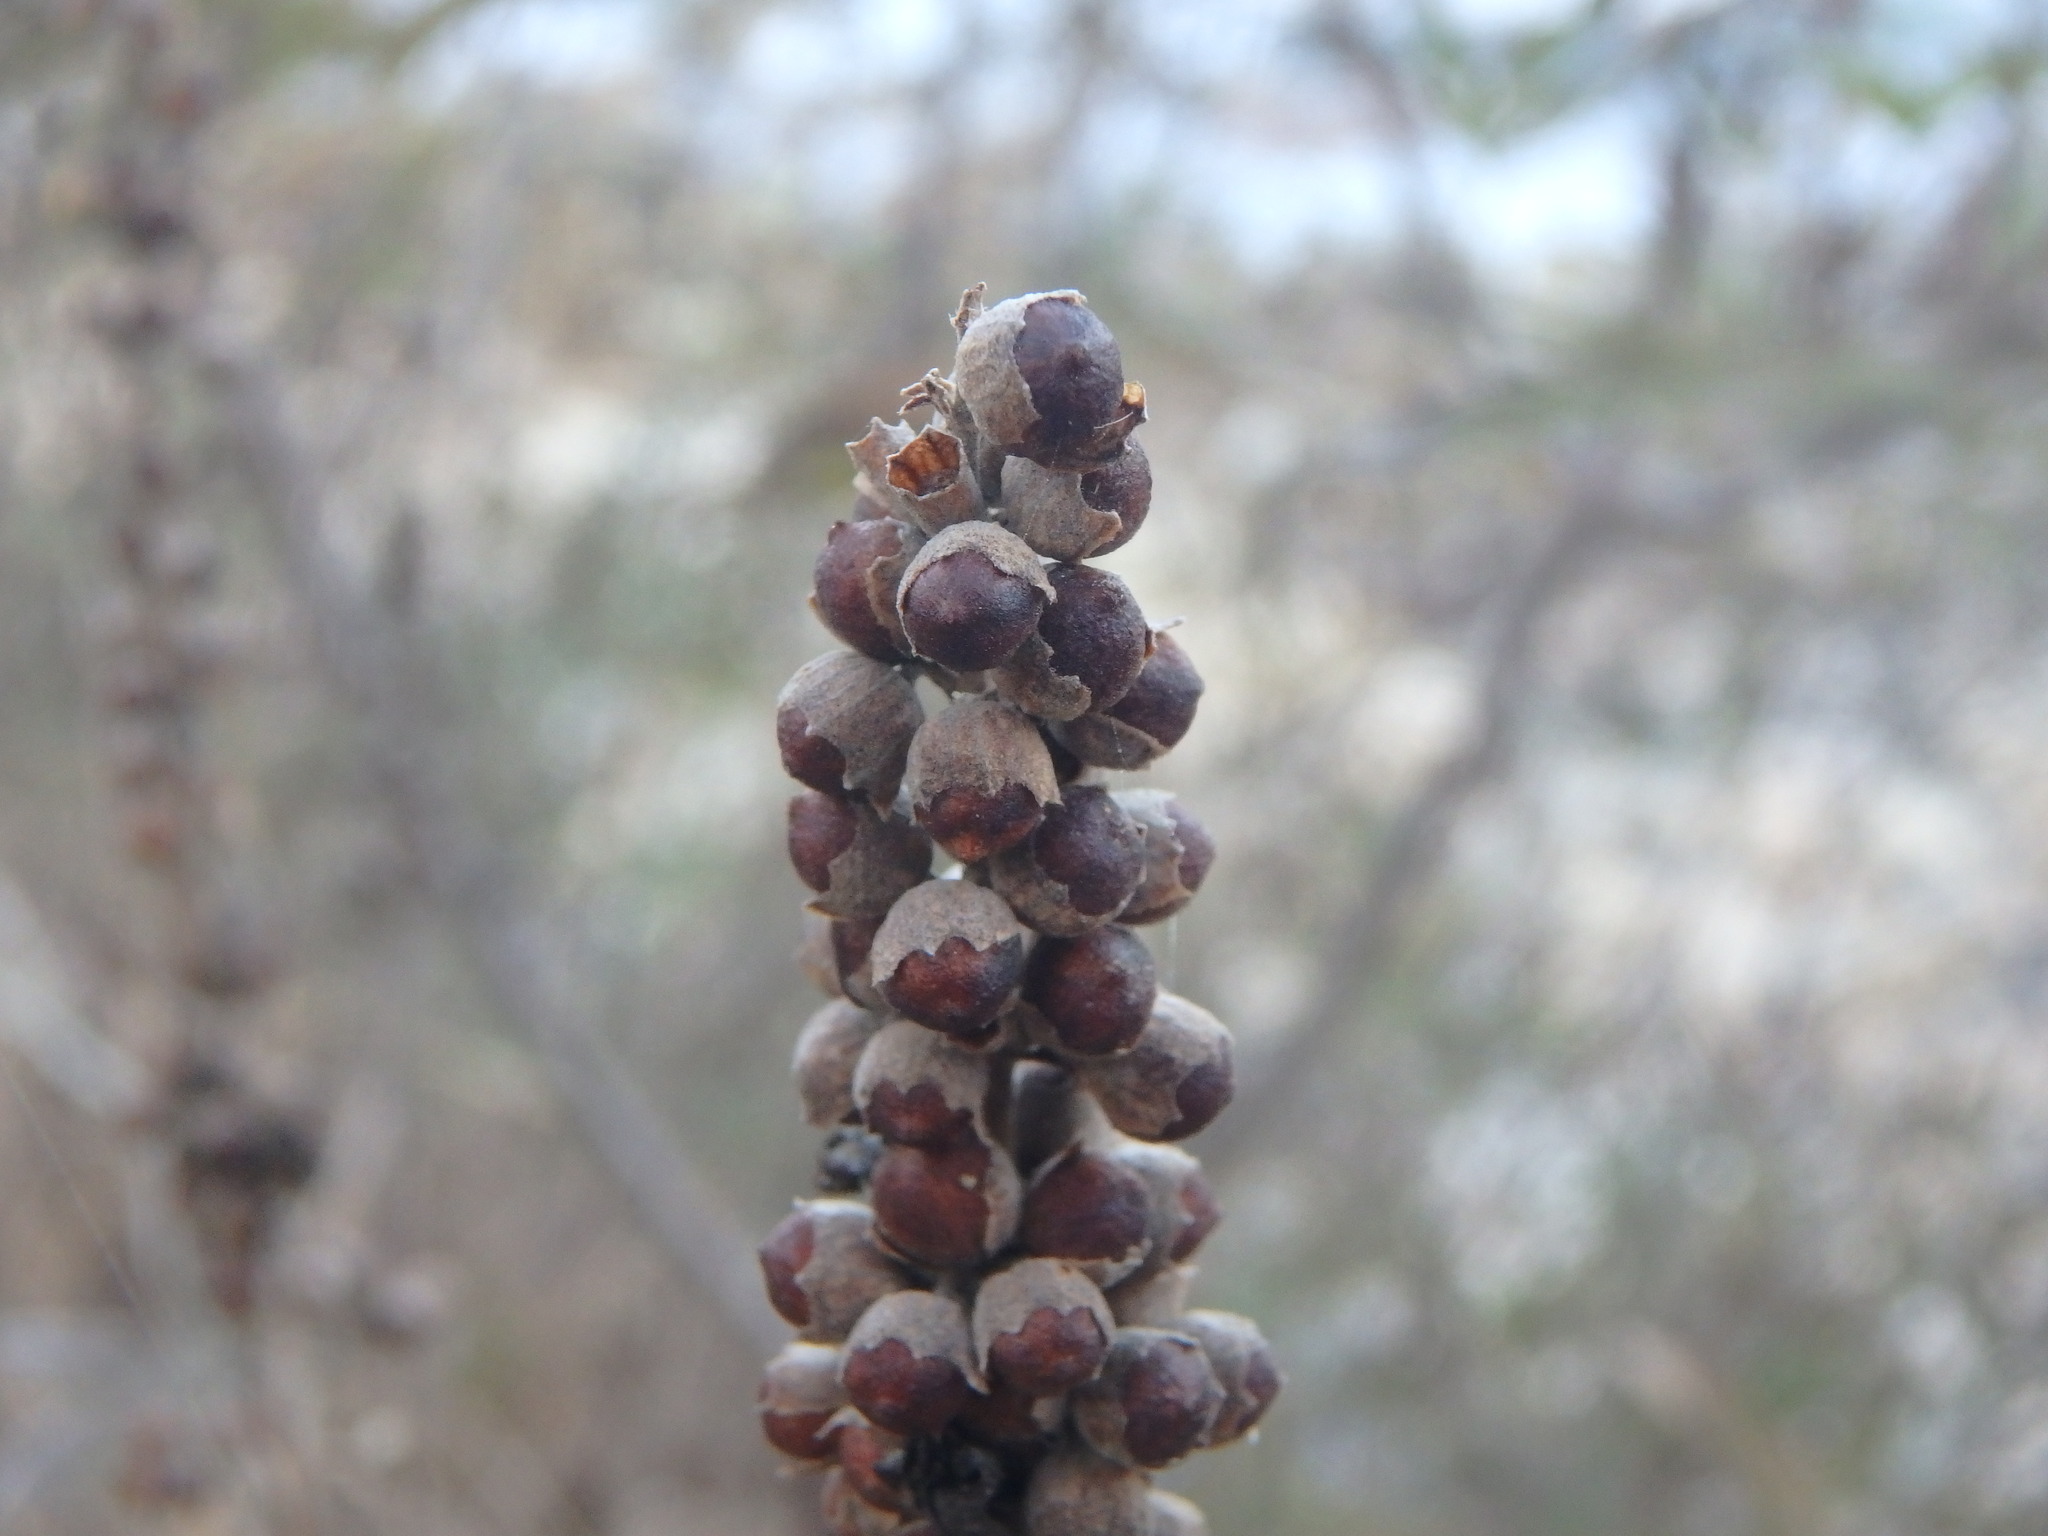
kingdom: Plantae
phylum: Tracheophyta
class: Magnoliopsida
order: Lamiales
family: Lamiaceae
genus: Vitex
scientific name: Vitex agnus-castus
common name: Chasteberry
